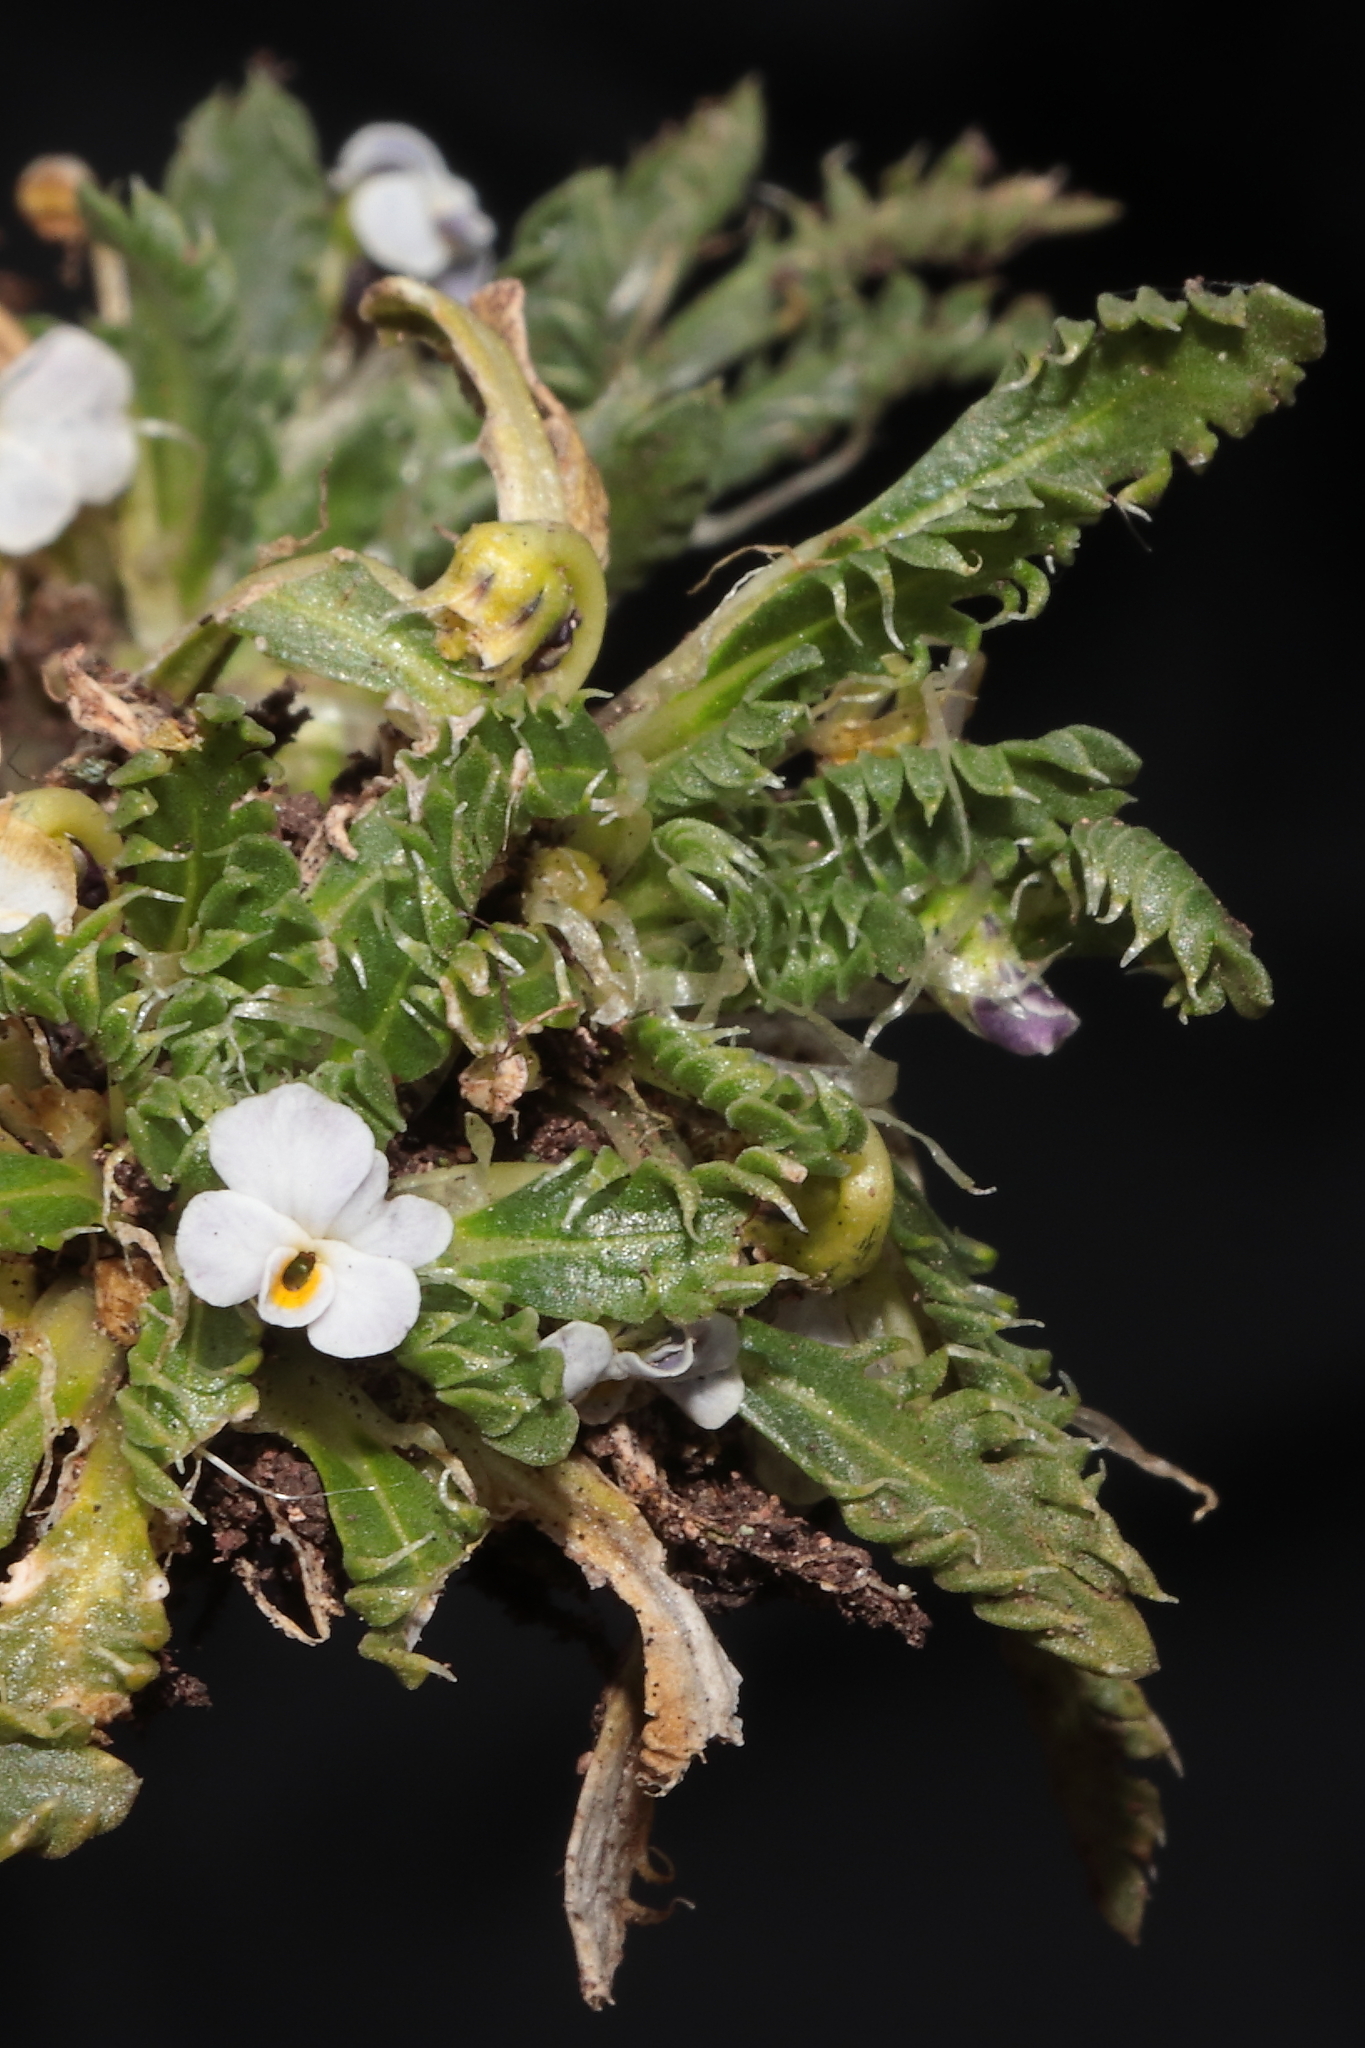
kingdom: Plantae
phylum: Tracheophyta
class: Magnoliopsida
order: Malpighiales
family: Violaceae
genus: Viola
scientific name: Viola weibelii
